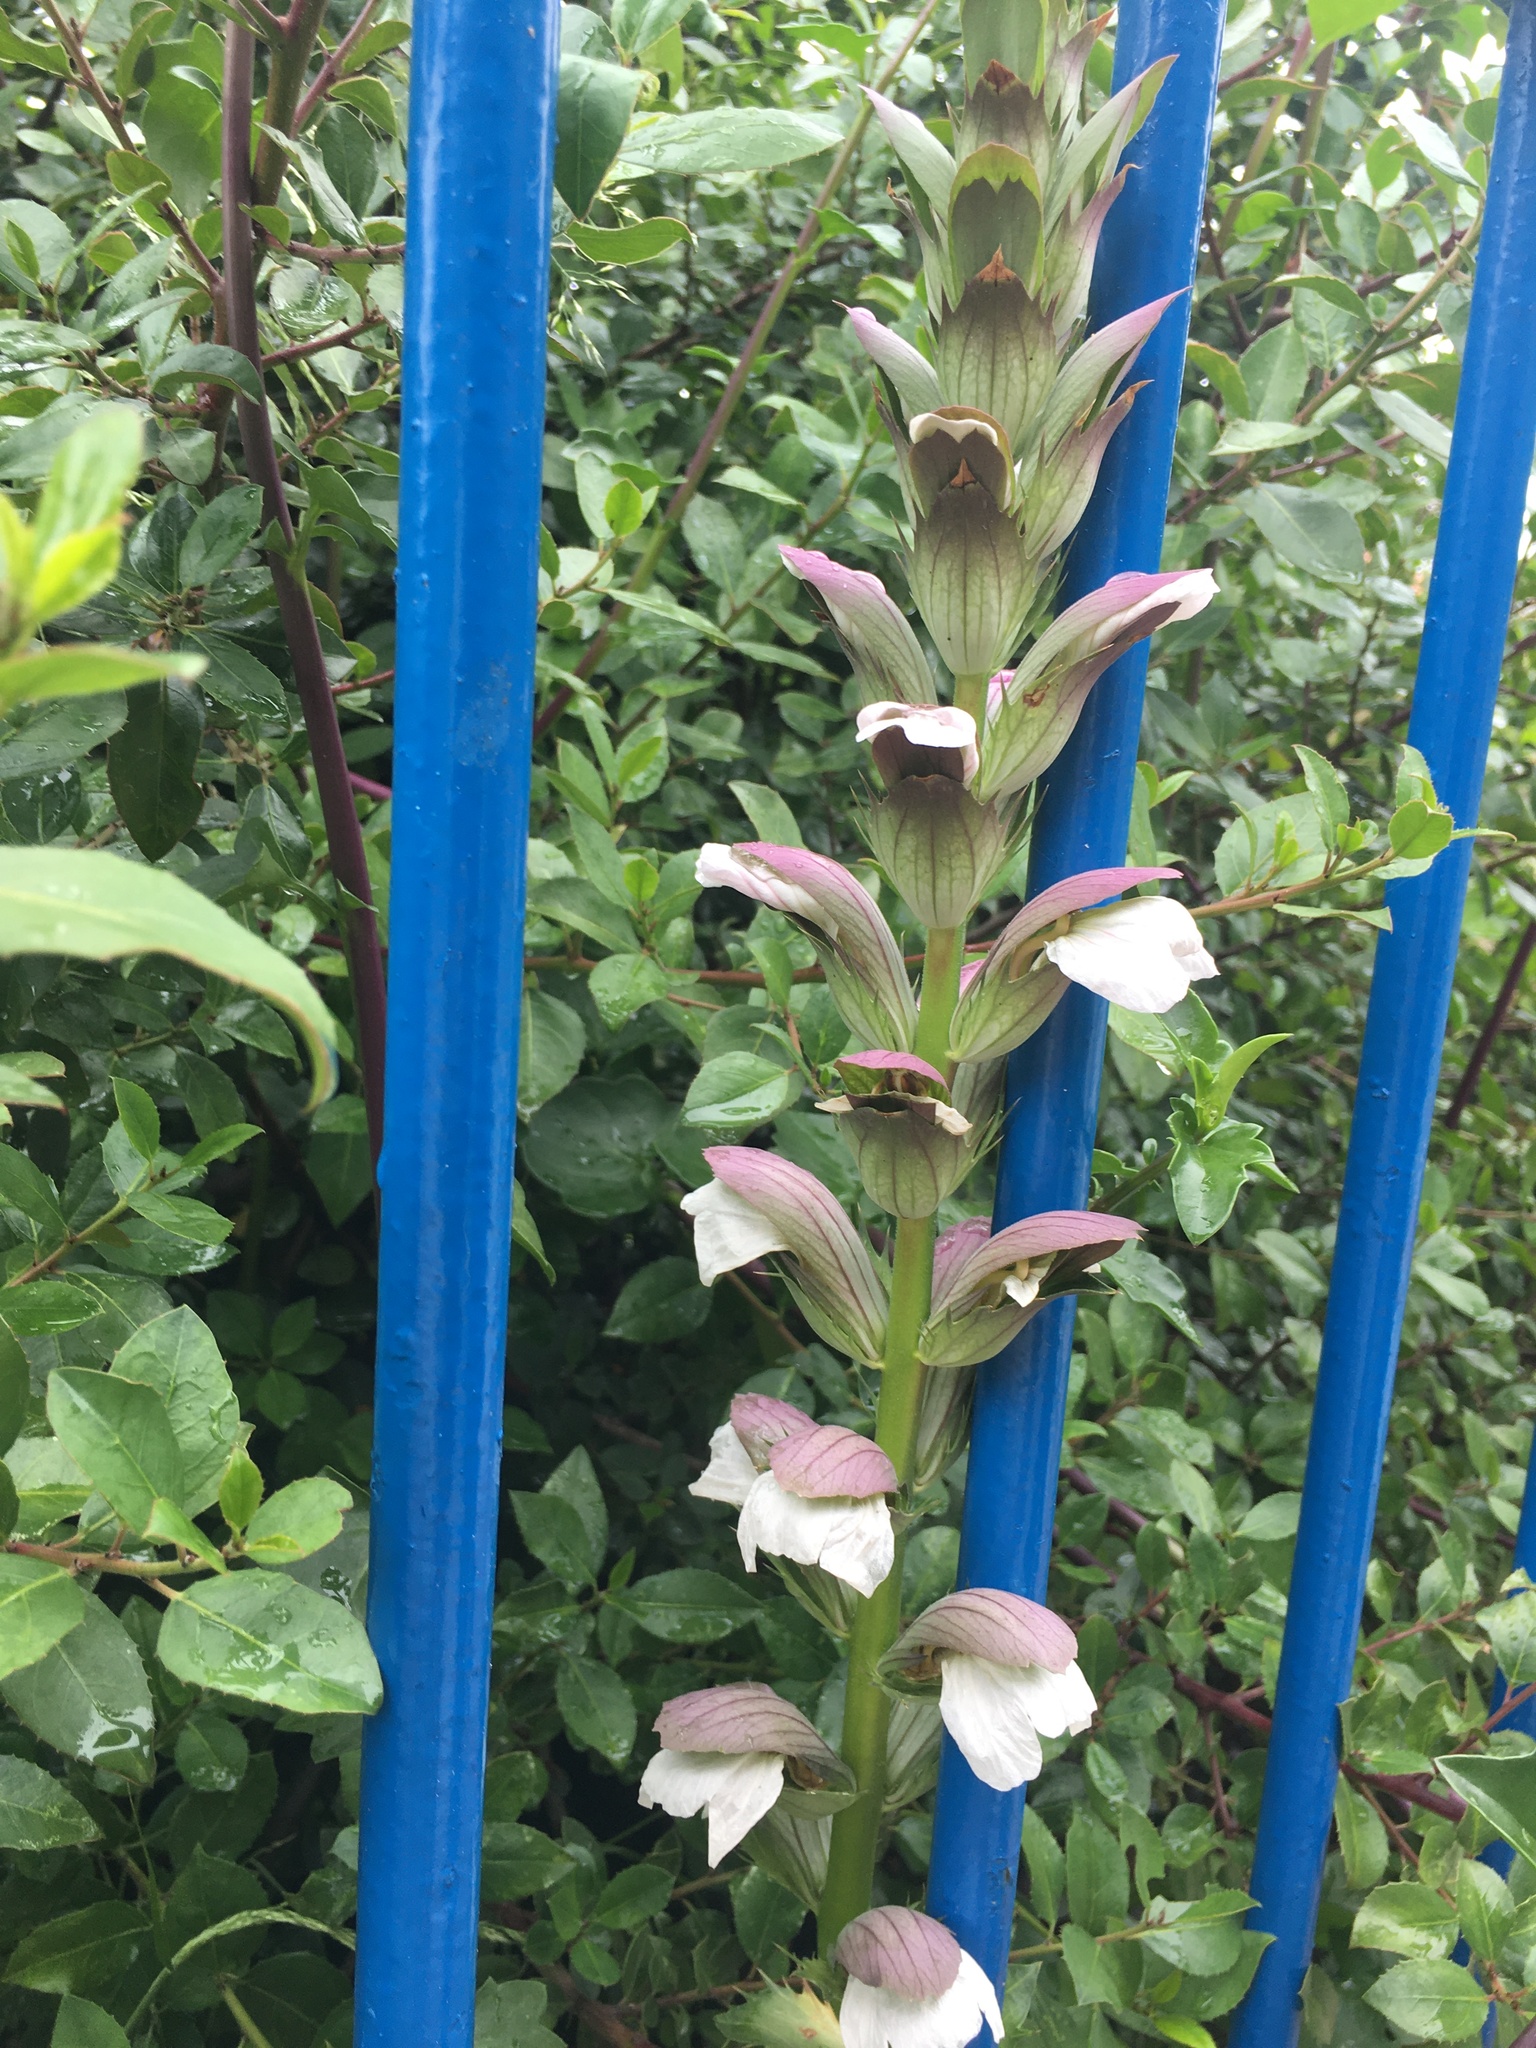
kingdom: Plantae
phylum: Tracheophyta
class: Magnoliopsida
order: Lamiales
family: Acanthaceae
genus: Acanthus
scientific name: Acanthus mollis
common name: Bear's-breech
